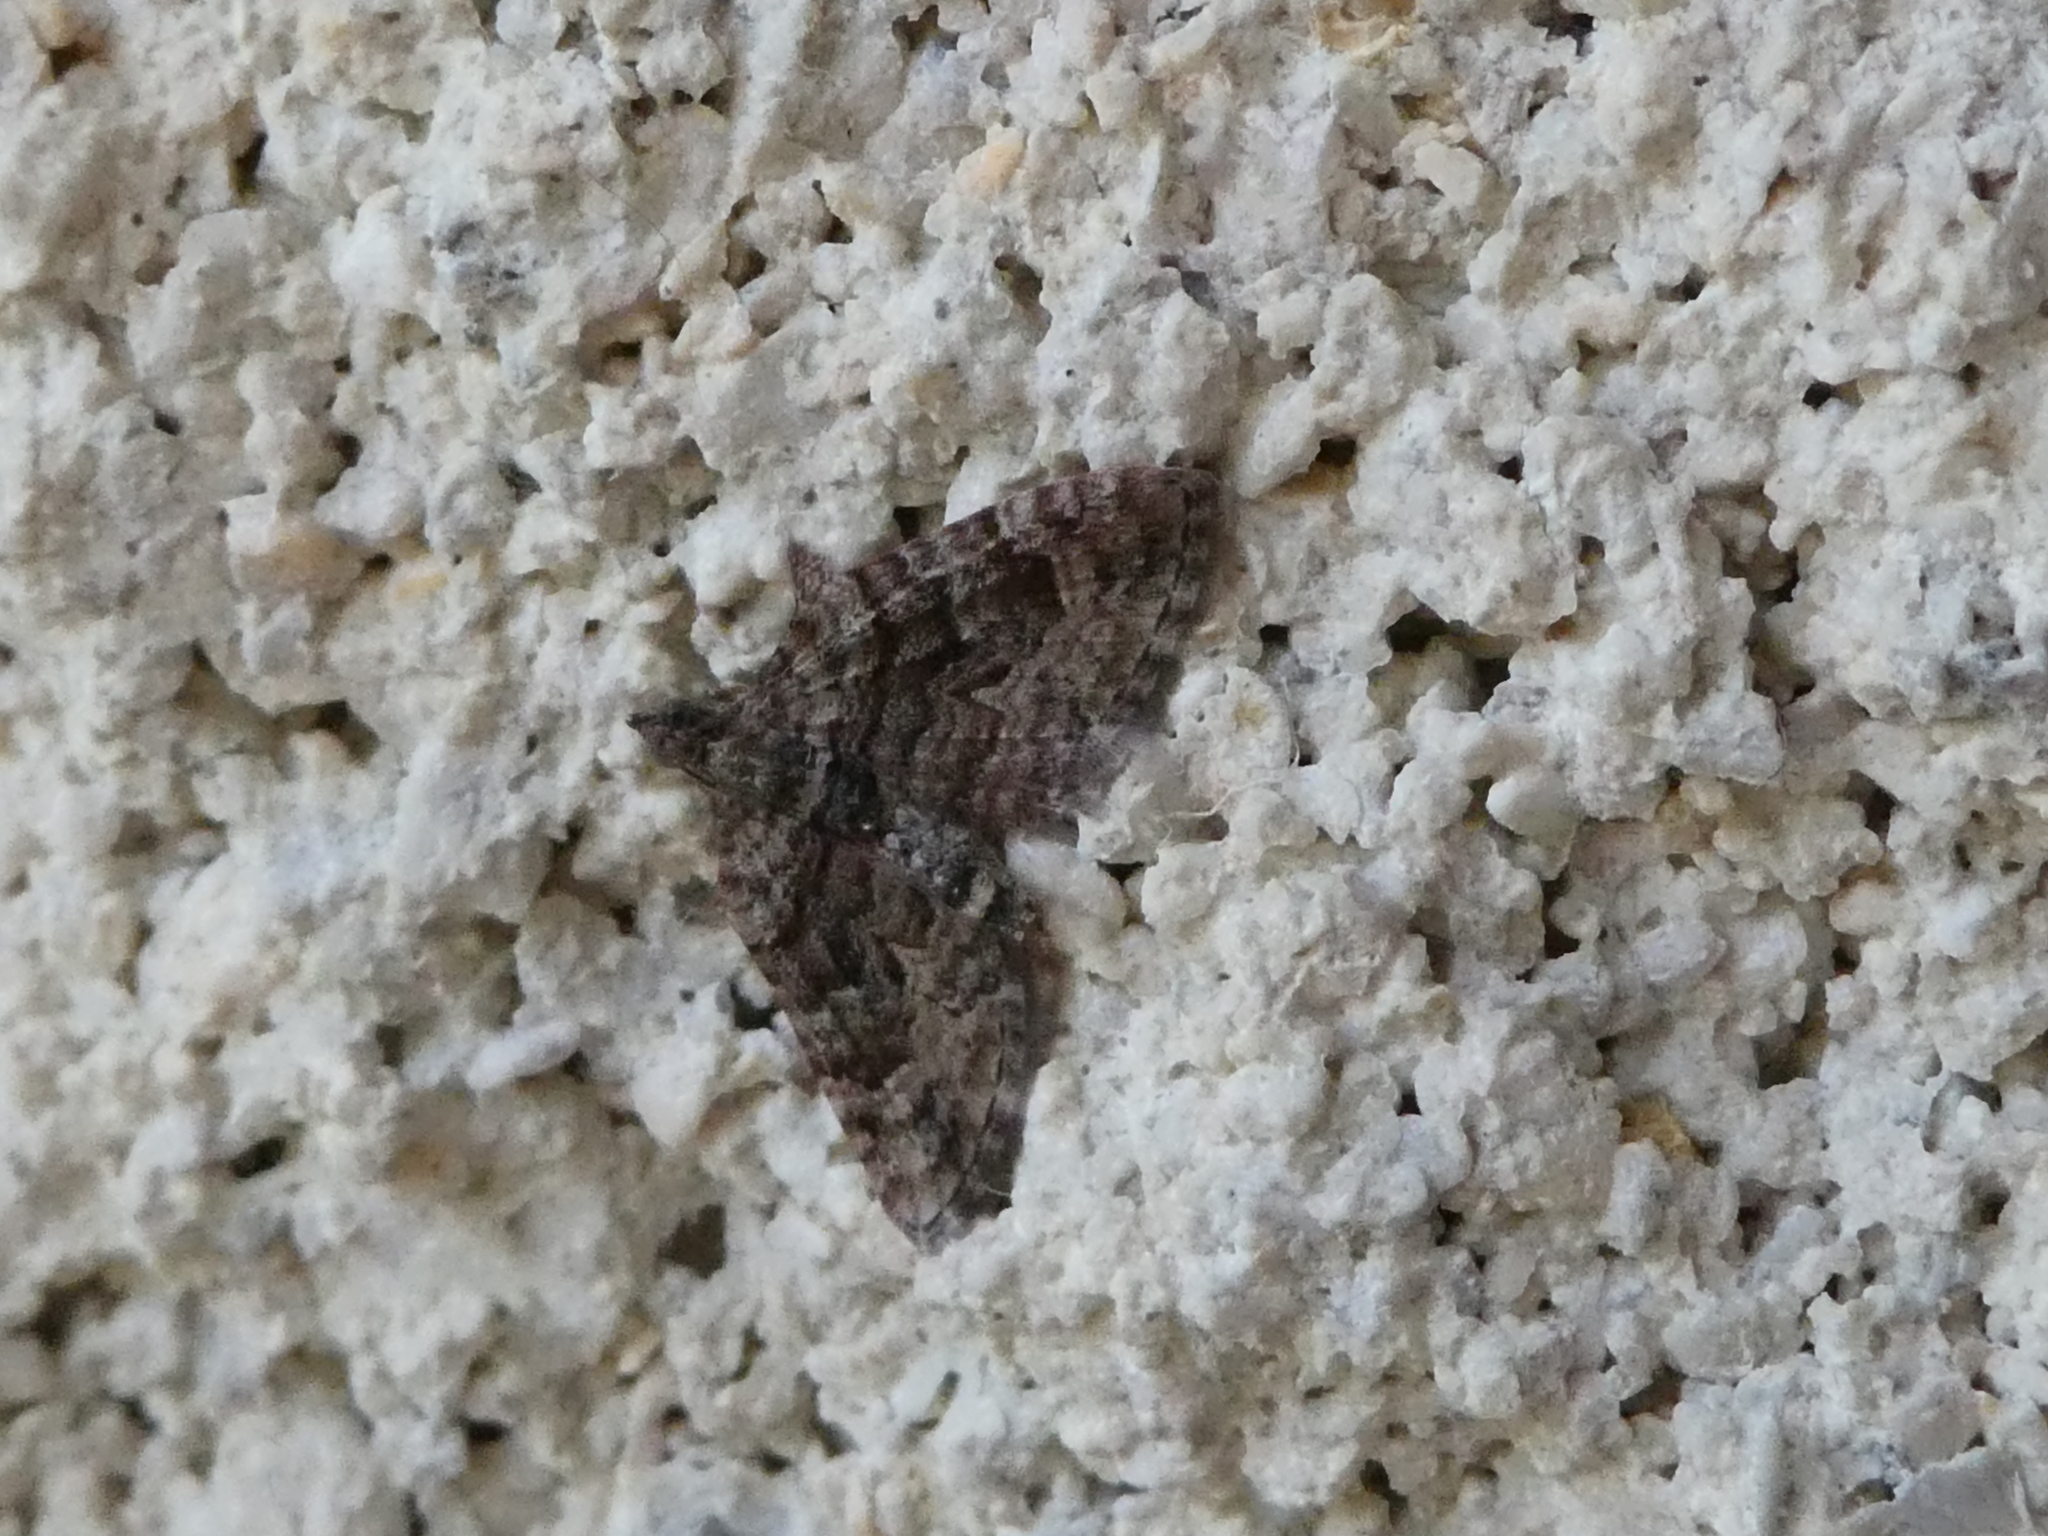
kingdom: Animalia
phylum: Arthropoda
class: Insecta
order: Lepidoptera
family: Geometridae
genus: Phrissogonus
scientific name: Phrissogonus laticostata
